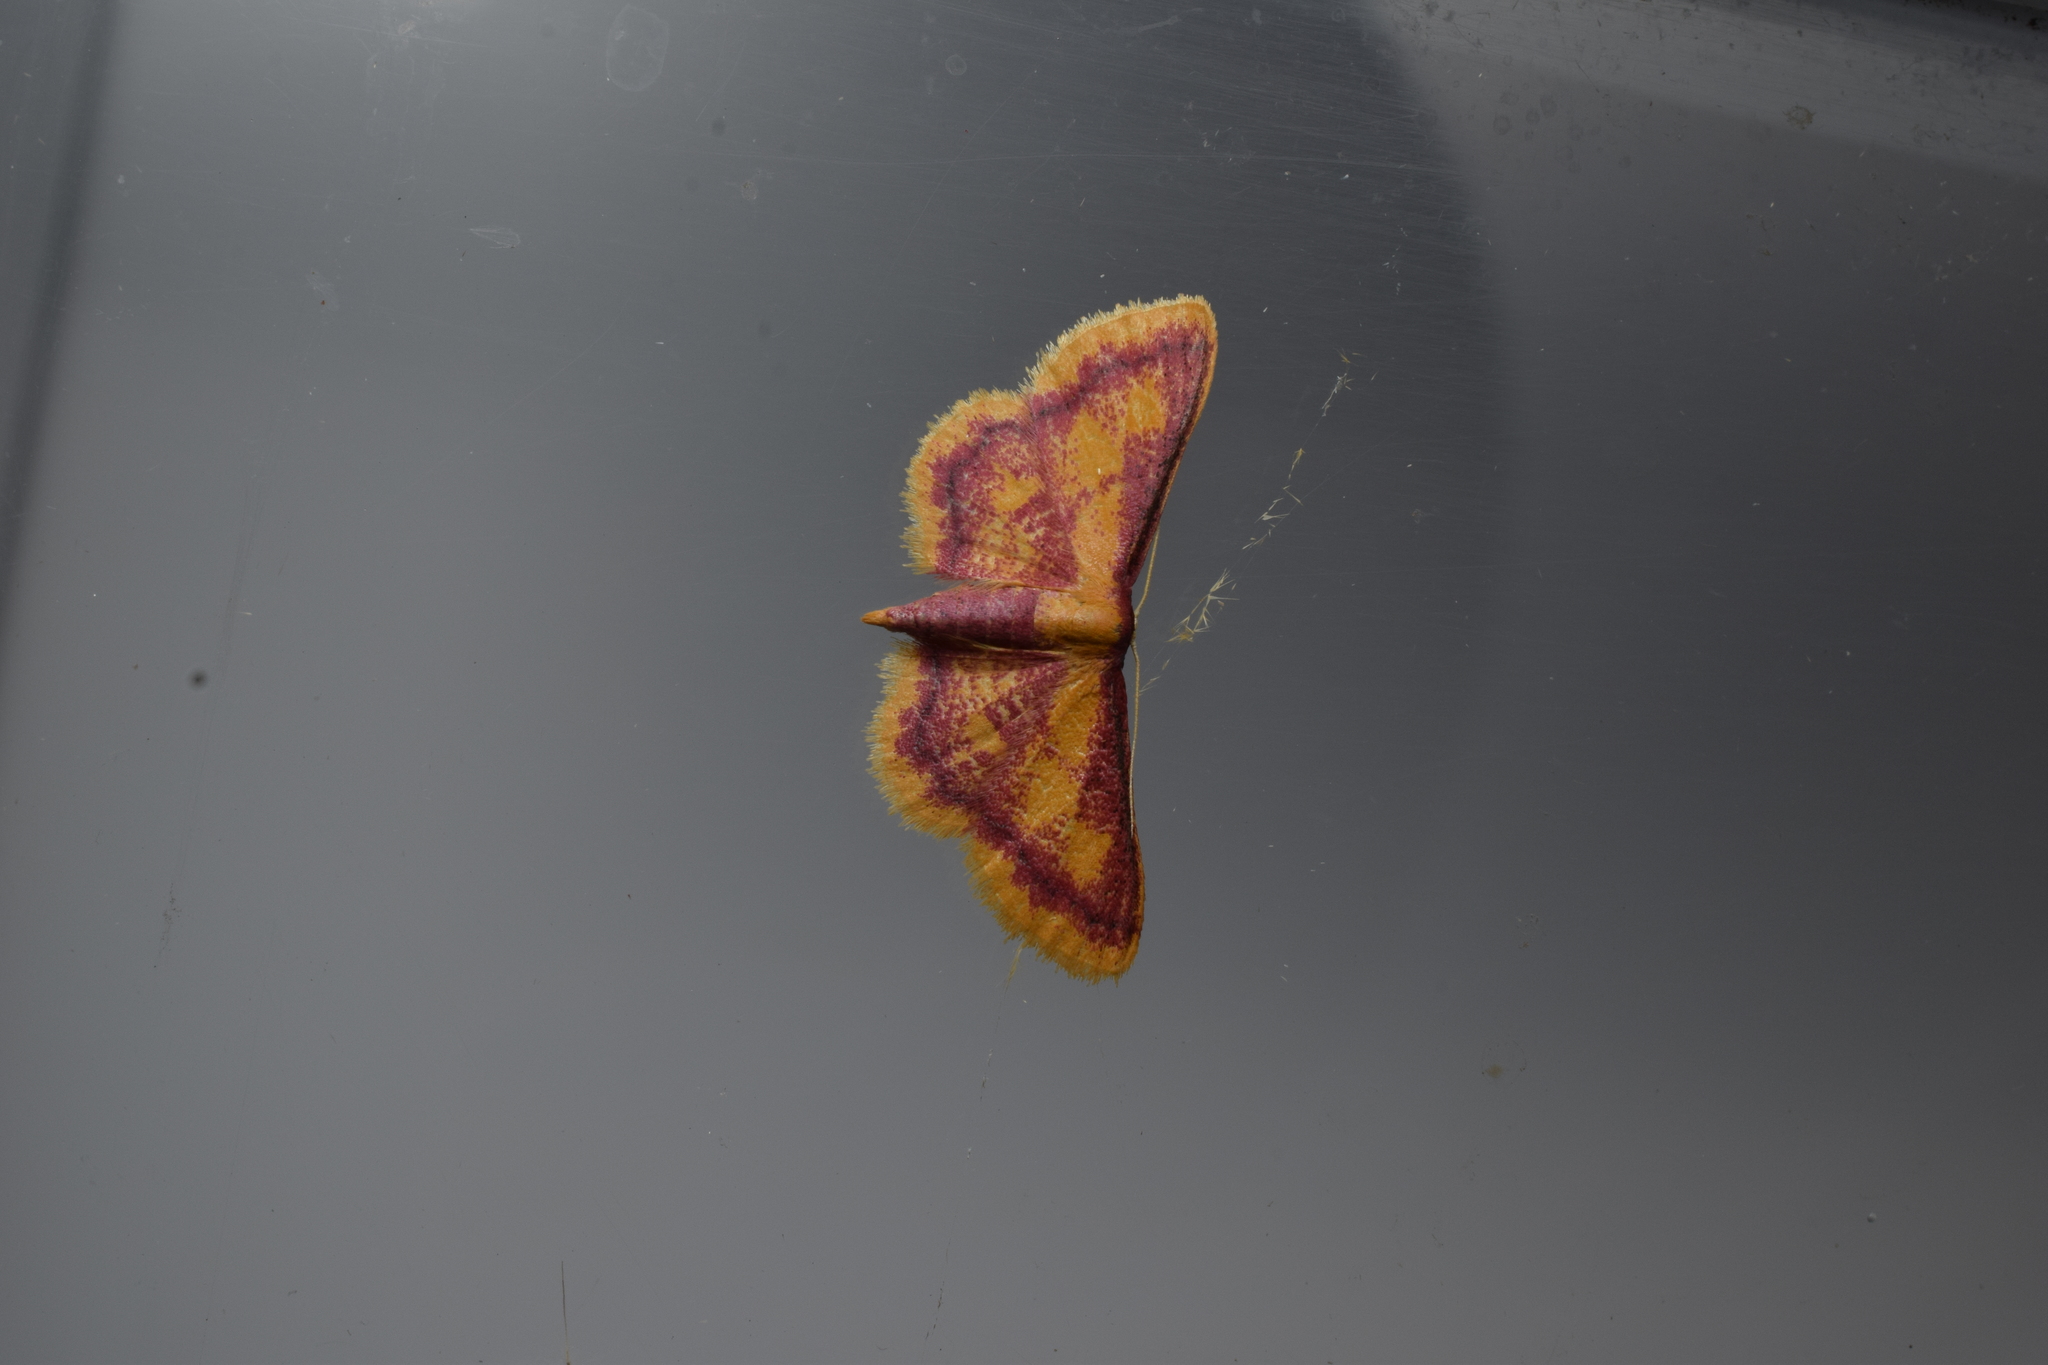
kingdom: Animalia
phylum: Arthropoda
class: Insecta
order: Lepidoptera
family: Geometridae
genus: Idaea
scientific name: Idaea muricata
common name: Purple-bordered gold
